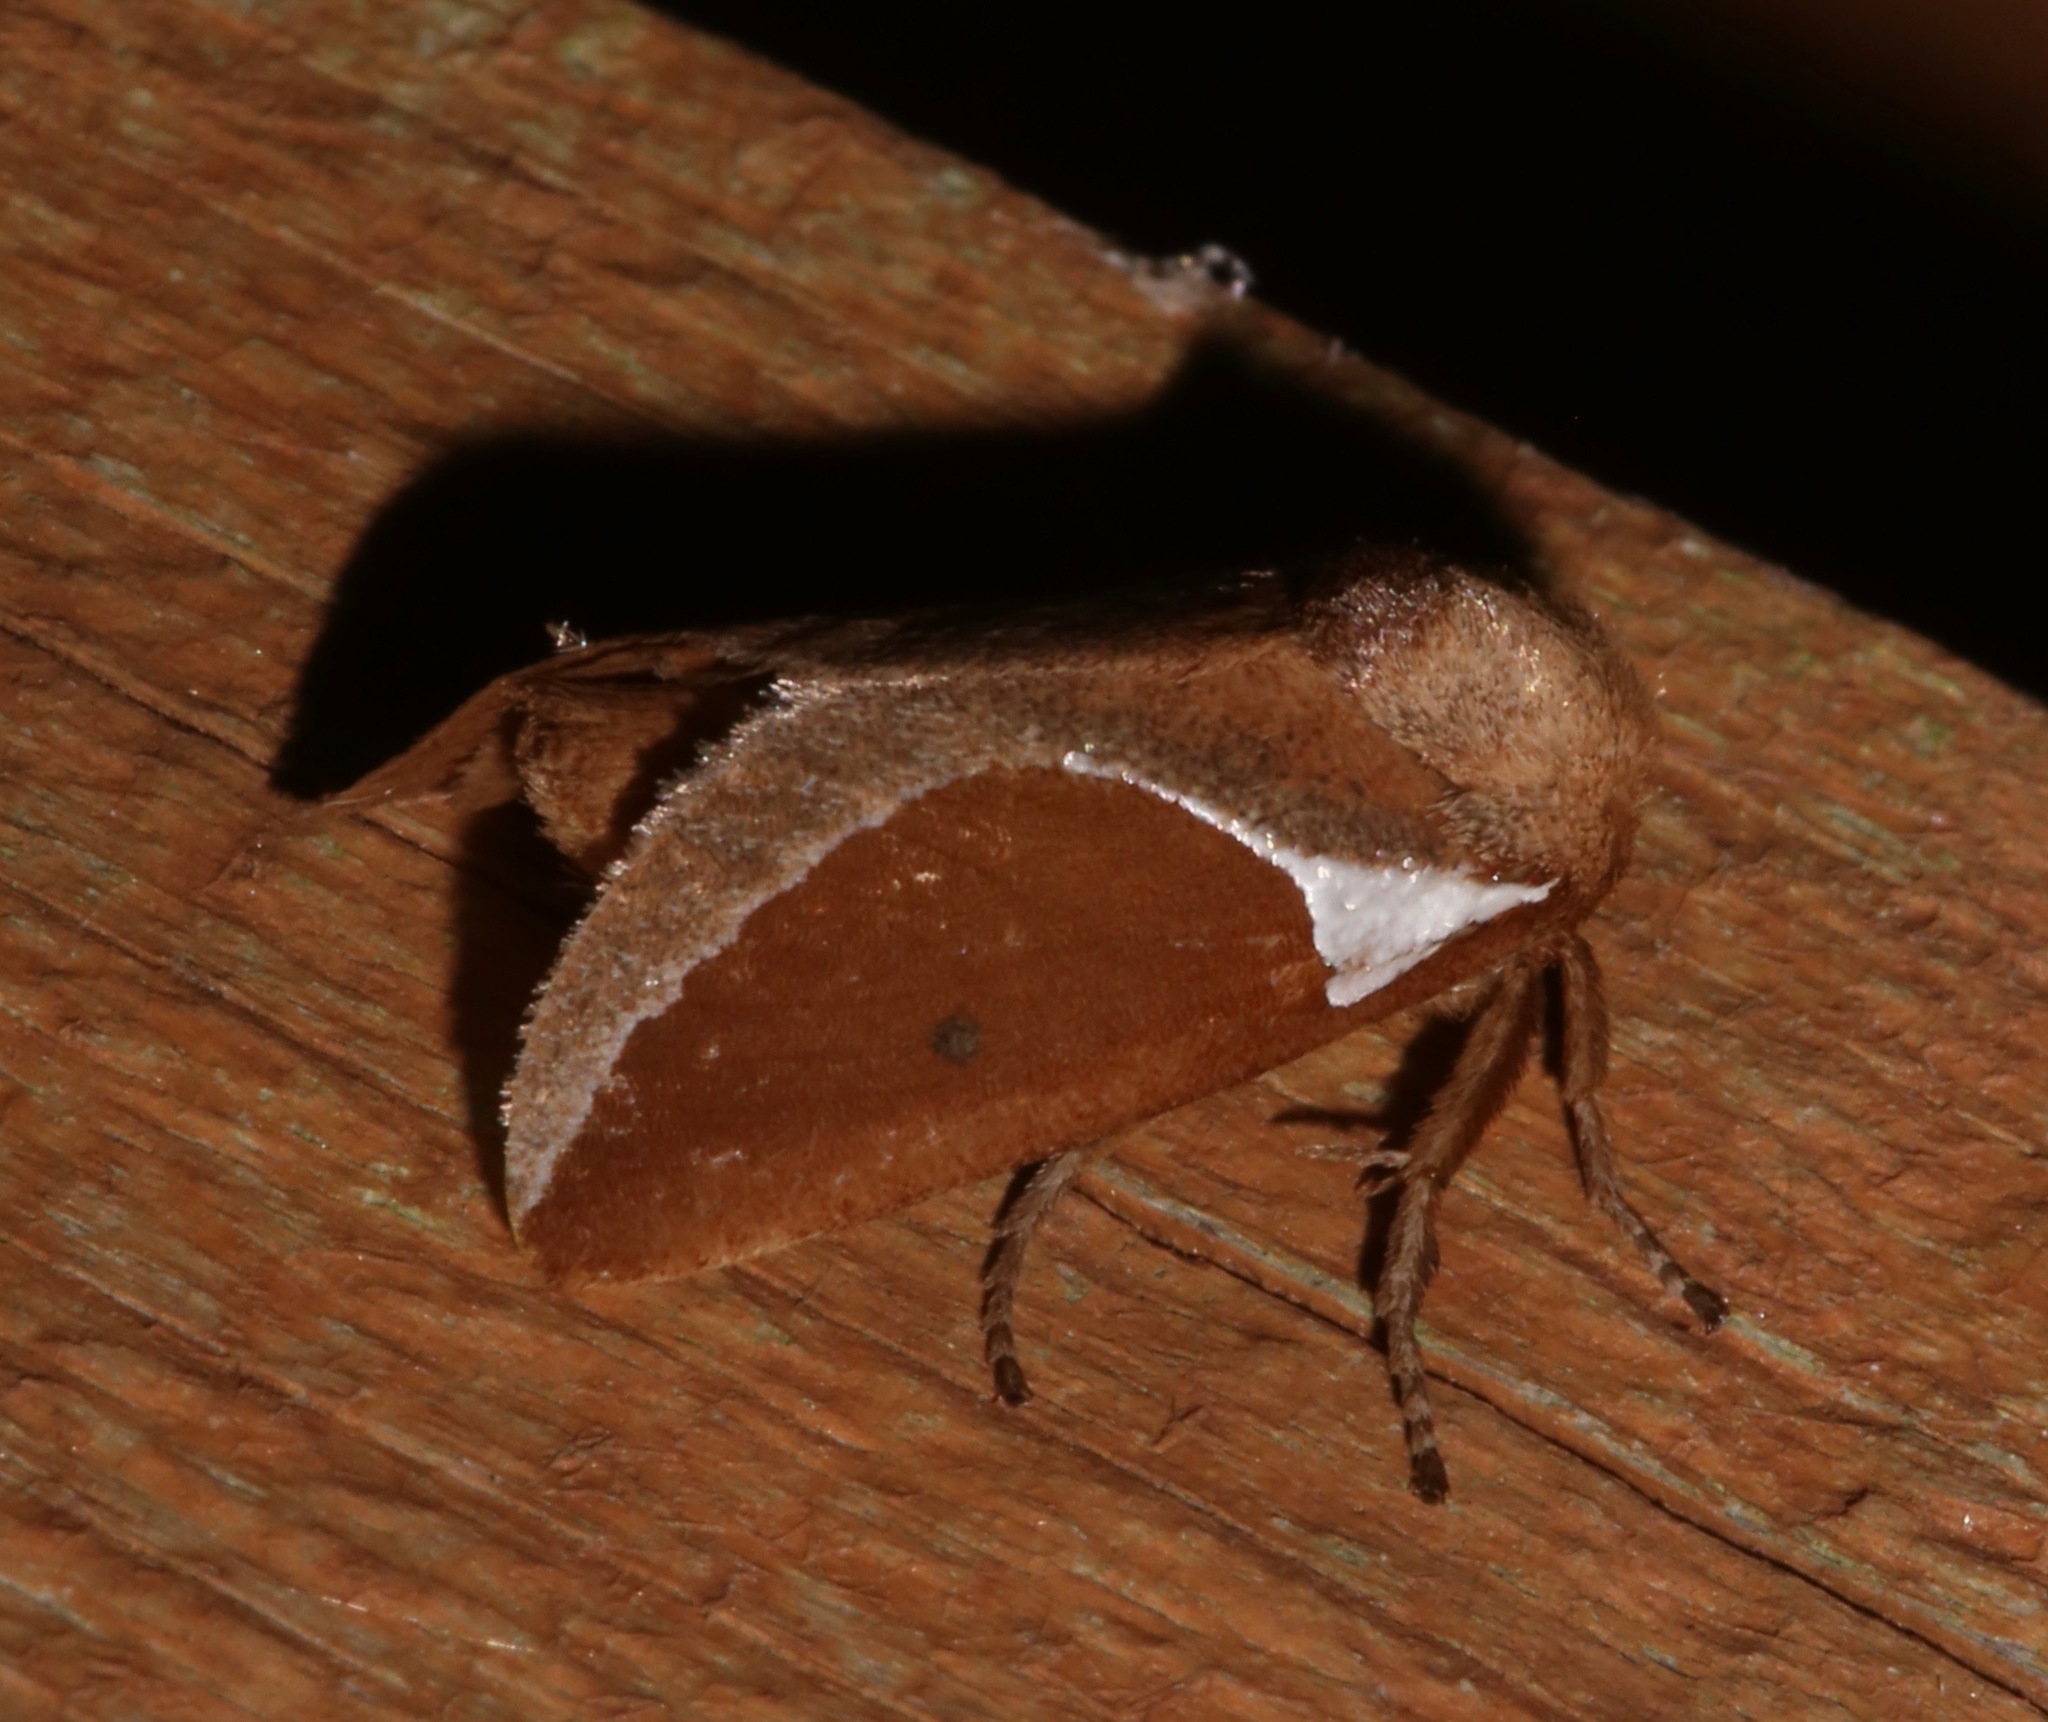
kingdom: Animalia
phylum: Arthropoda
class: Insecta
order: Lepidoptera
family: Limacodidae
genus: Prolimacodes
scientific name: Prolimacodes badia
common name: Skiff moth
